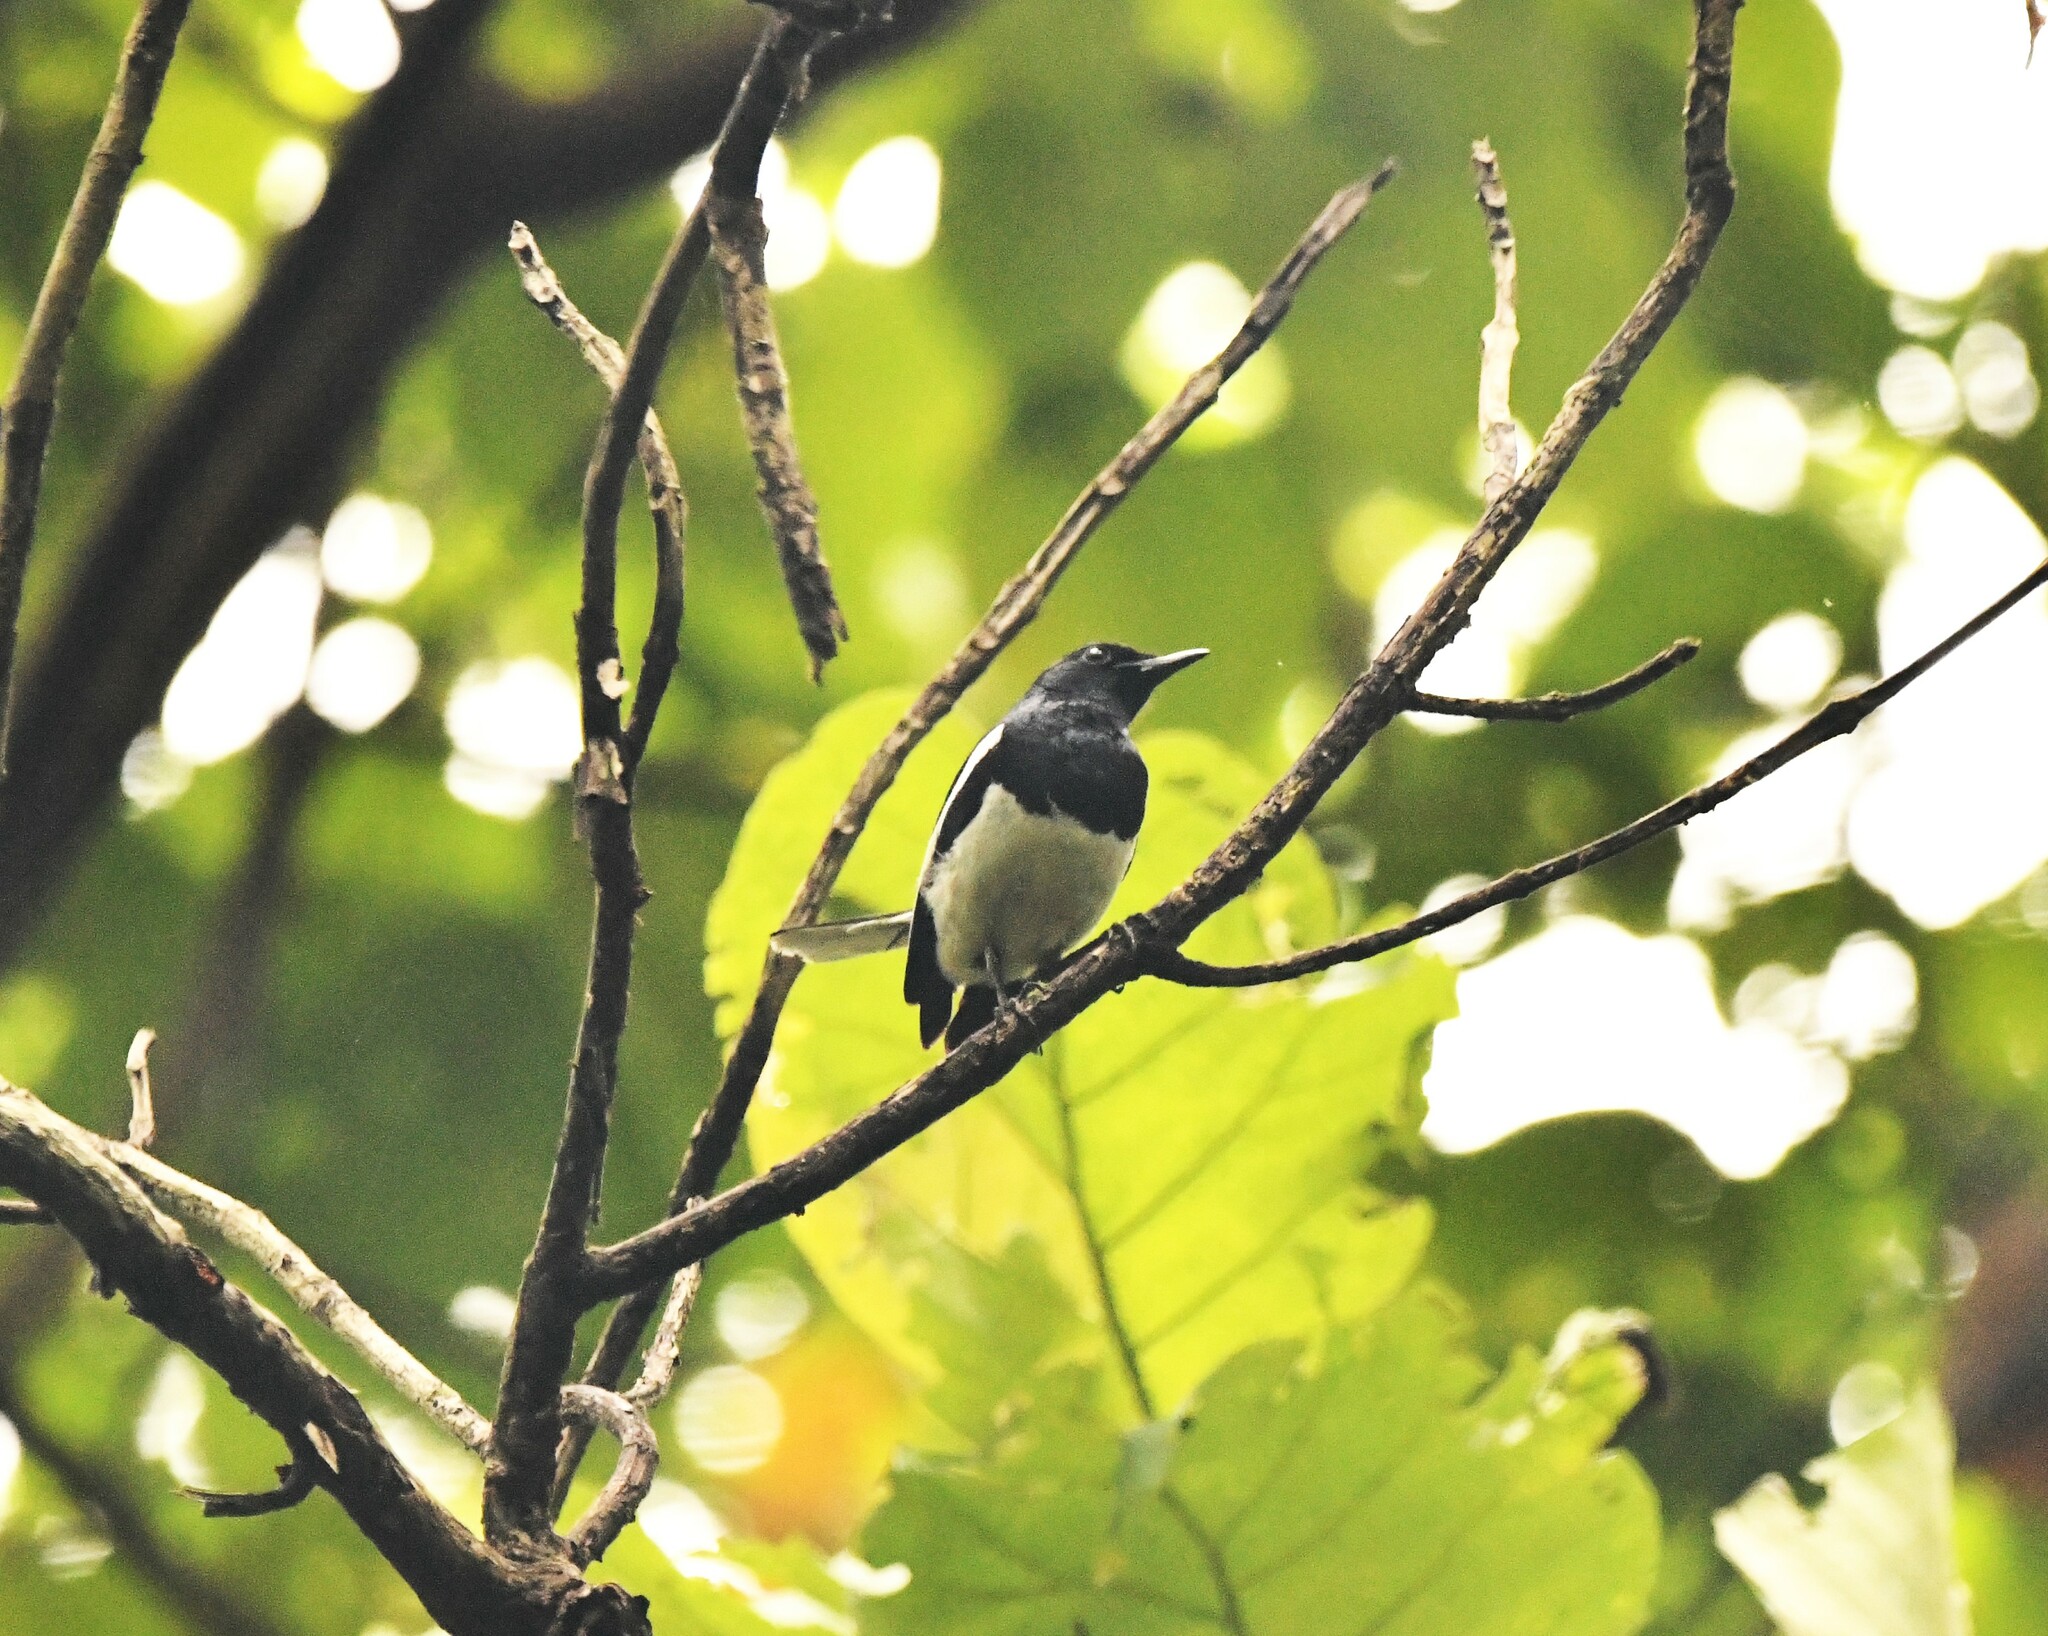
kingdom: Animalia
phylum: Chordata
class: Aves
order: Passeriformes
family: Muscicapidae
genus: Copsychus
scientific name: Copsychus saularis
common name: Oriental magpie-robin
